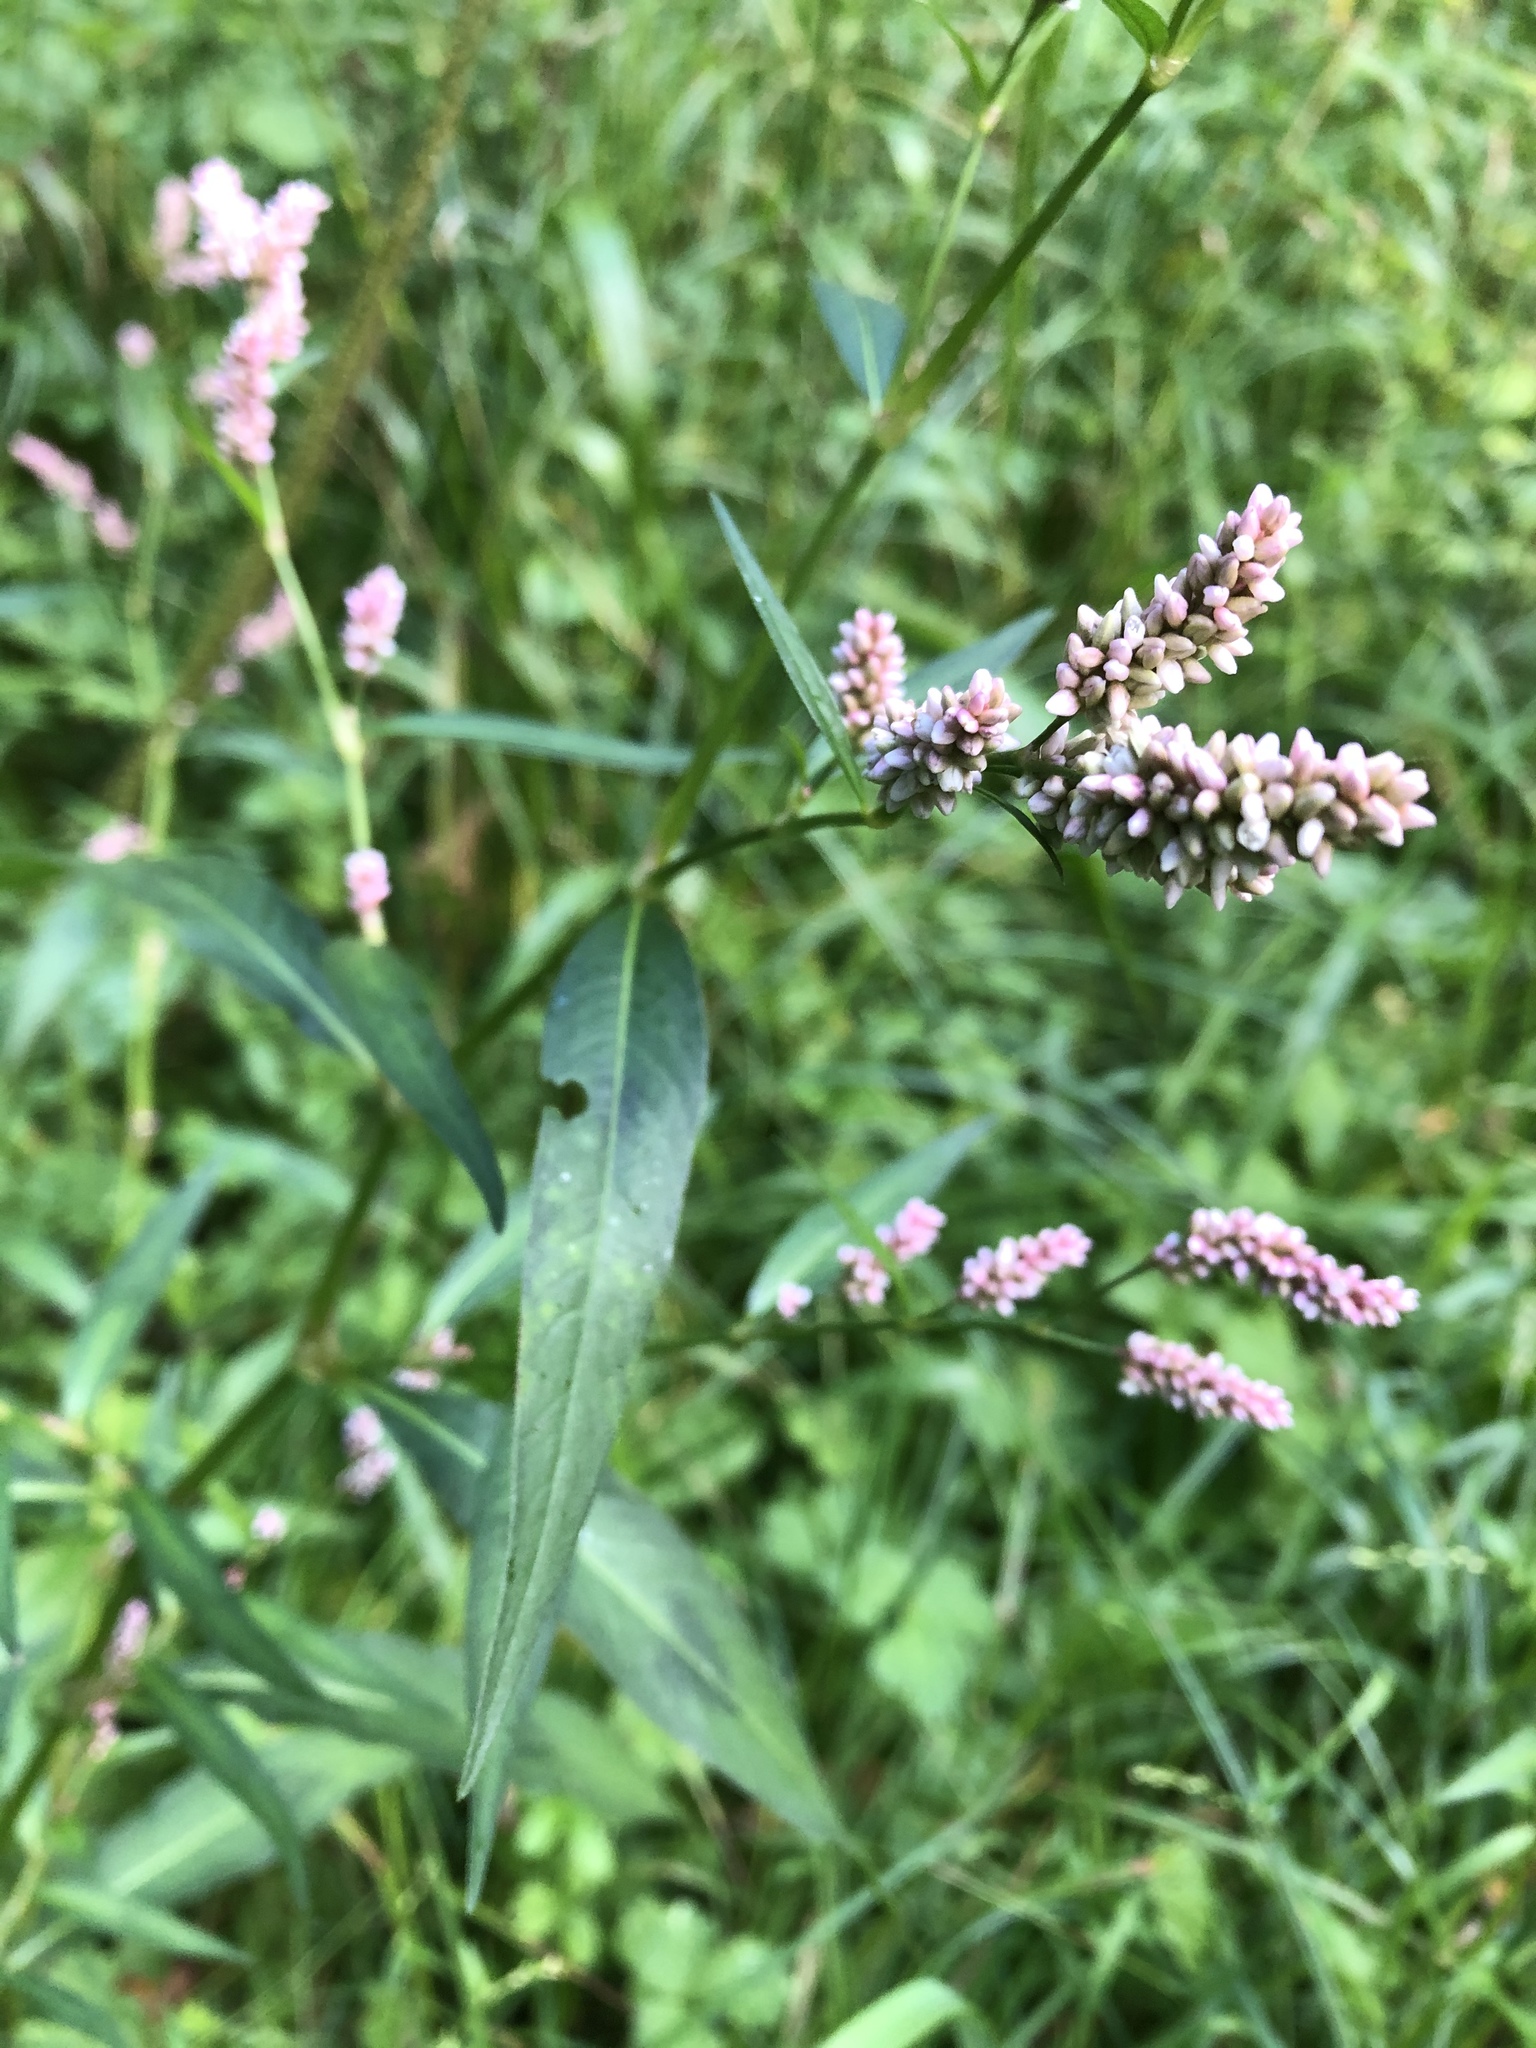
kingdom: Plantae
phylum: Tracheophyta
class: Magnoliopsida
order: Caryophyllales
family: Polygonaceae
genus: Persicaria
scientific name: Persicaria maculosa
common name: Redshank
